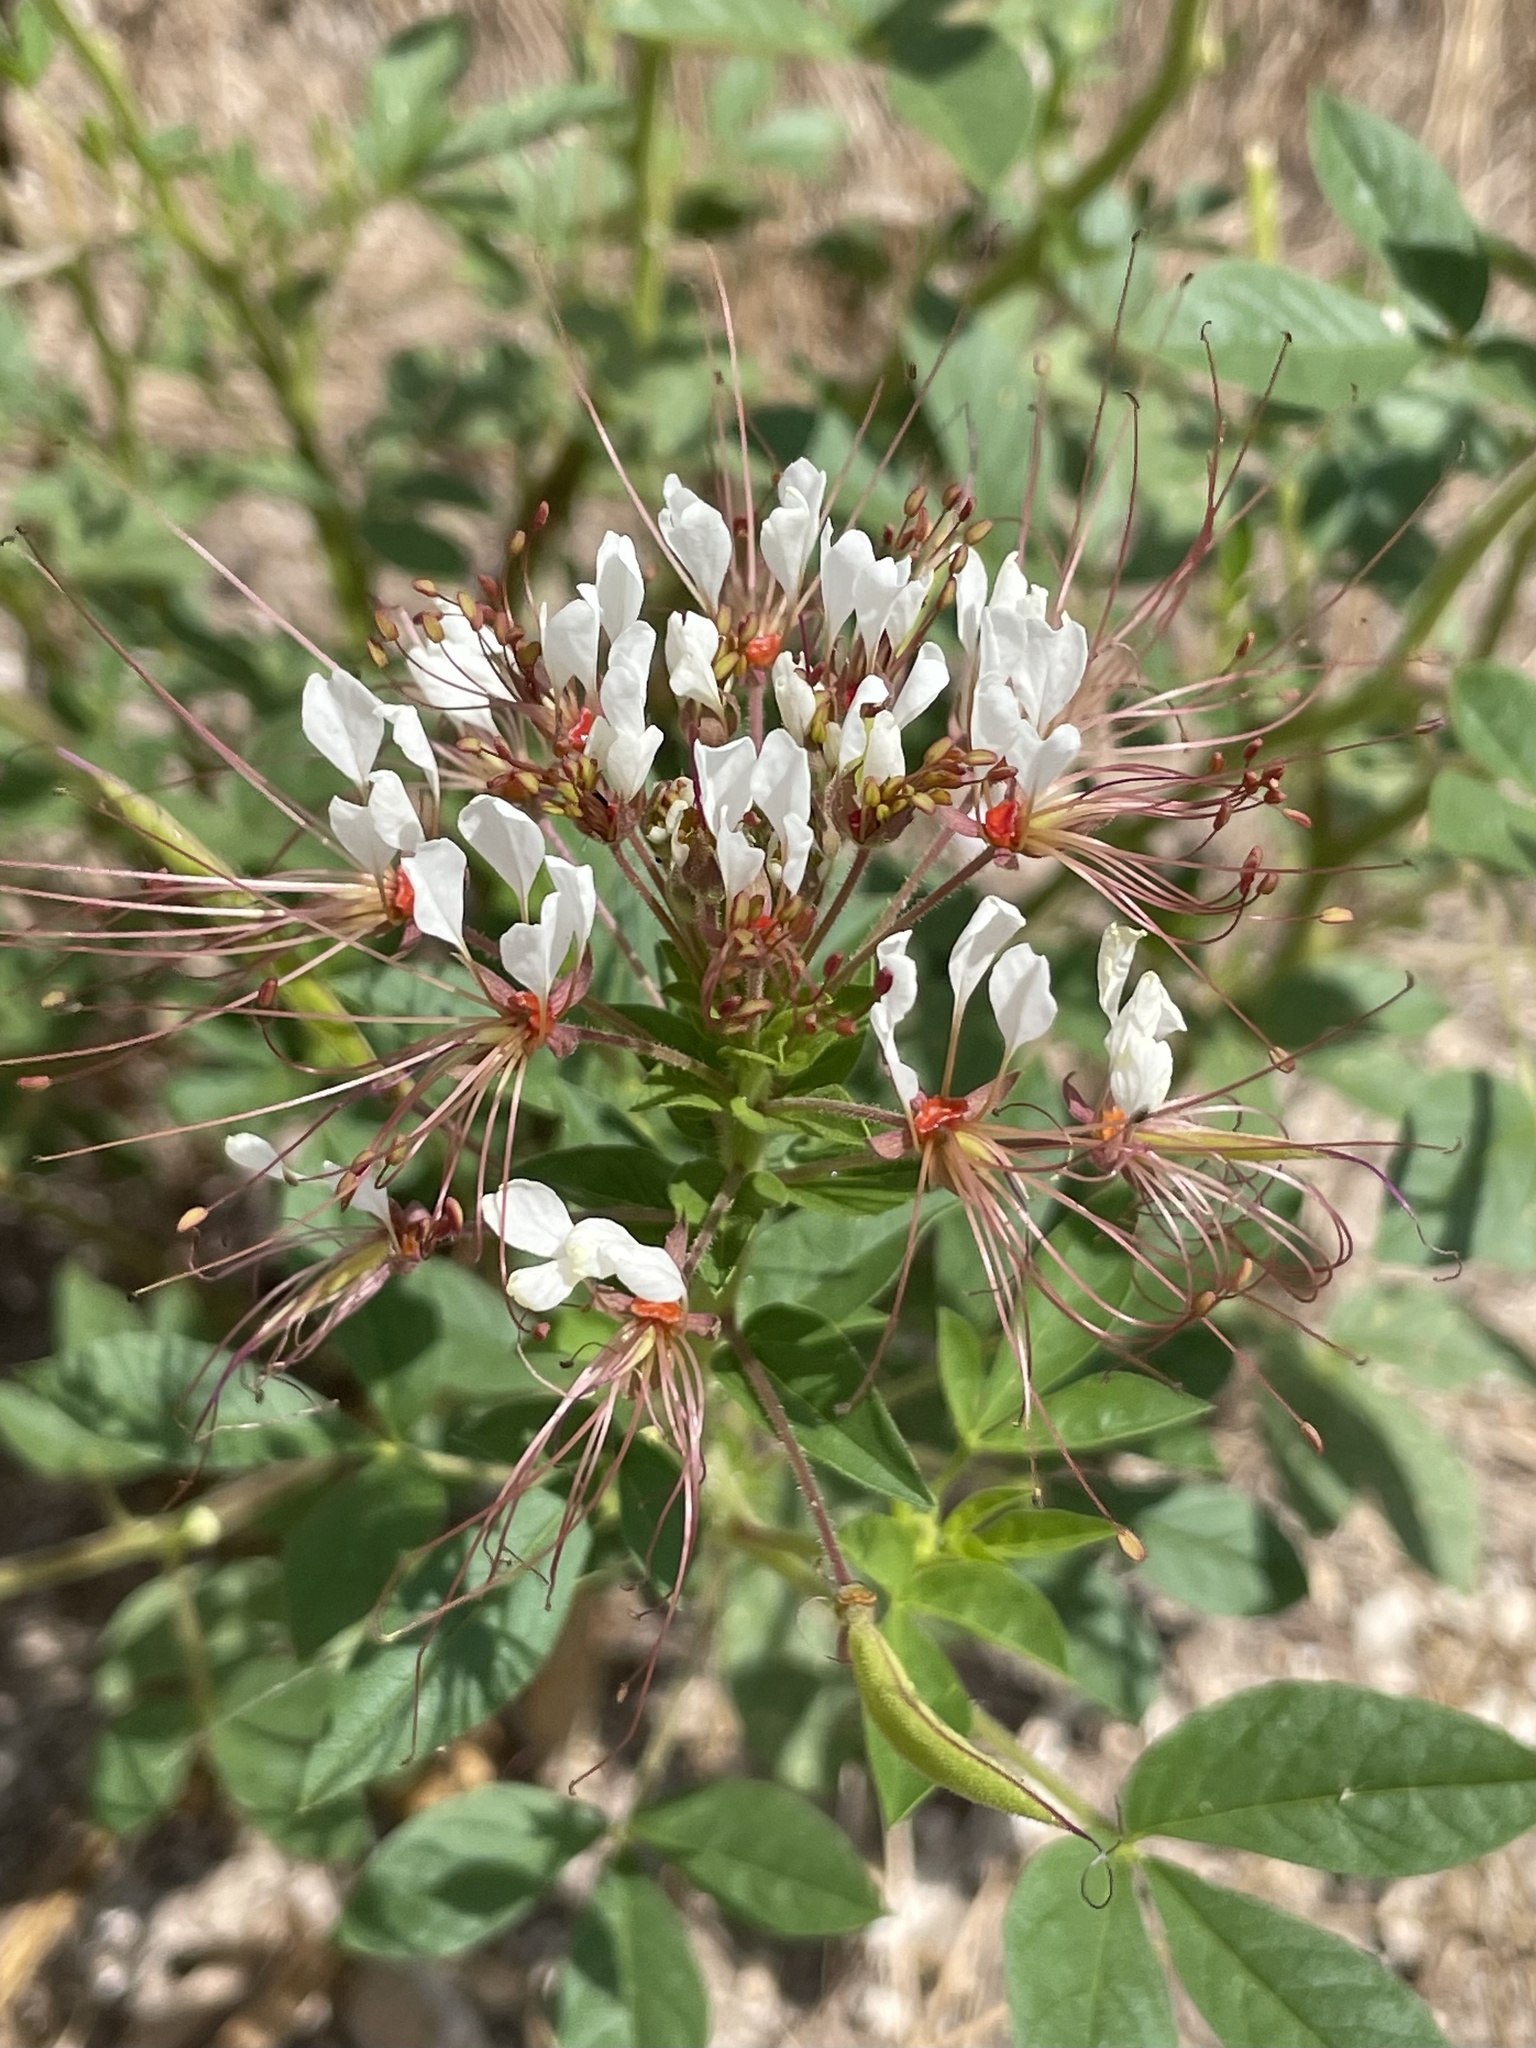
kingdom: Plantae
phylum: Tracheophyta
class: Magnoliopsida
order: Brassicales
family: Cleomaceae
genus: Polanisia
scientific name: Polanisia dodecandra
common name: Clammyweed
